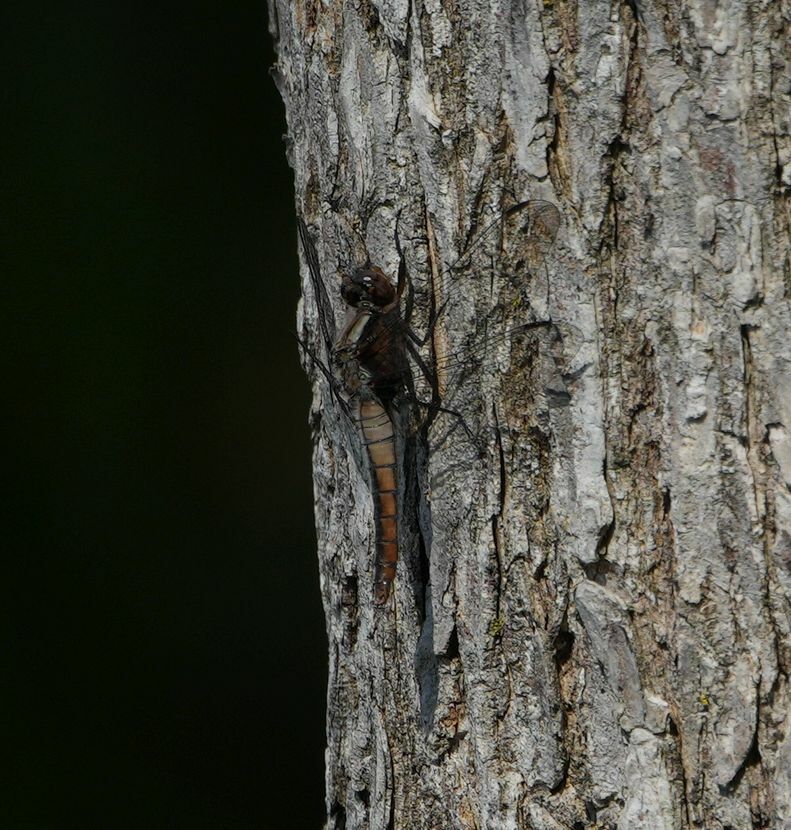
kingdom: Animalia
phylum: Arthropoda
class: Insecta
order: Odonata
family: Libellulidae
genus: Ladona
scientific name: Ladona julia
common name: Chalk-fronted corporal
